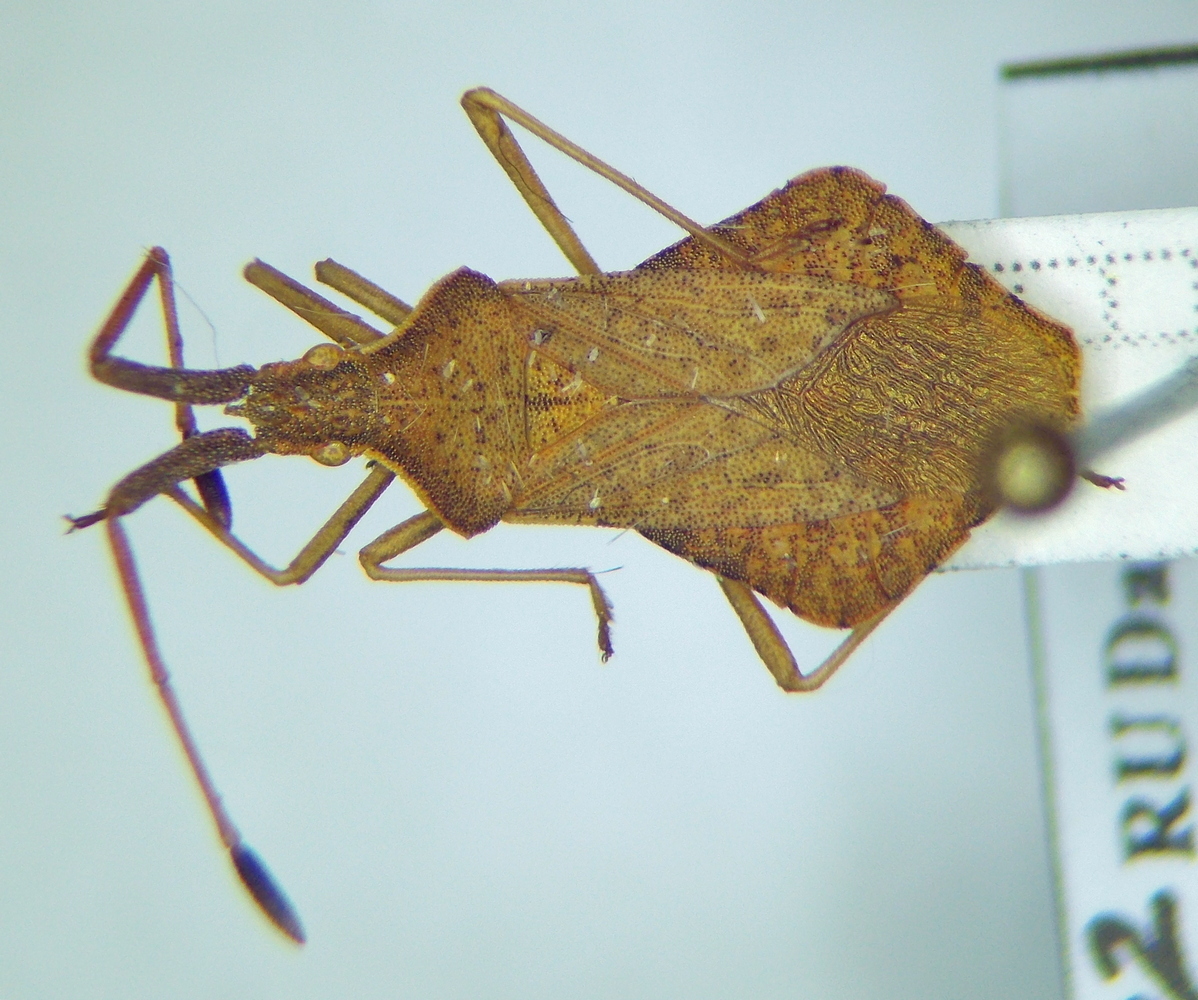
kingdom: Animalia
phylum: Arthropoda
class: Insecta
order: Hemiptera
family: Coreidae
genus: Syromastus
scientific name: Syromastus rhombeus
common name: Rhombic leatherbug
